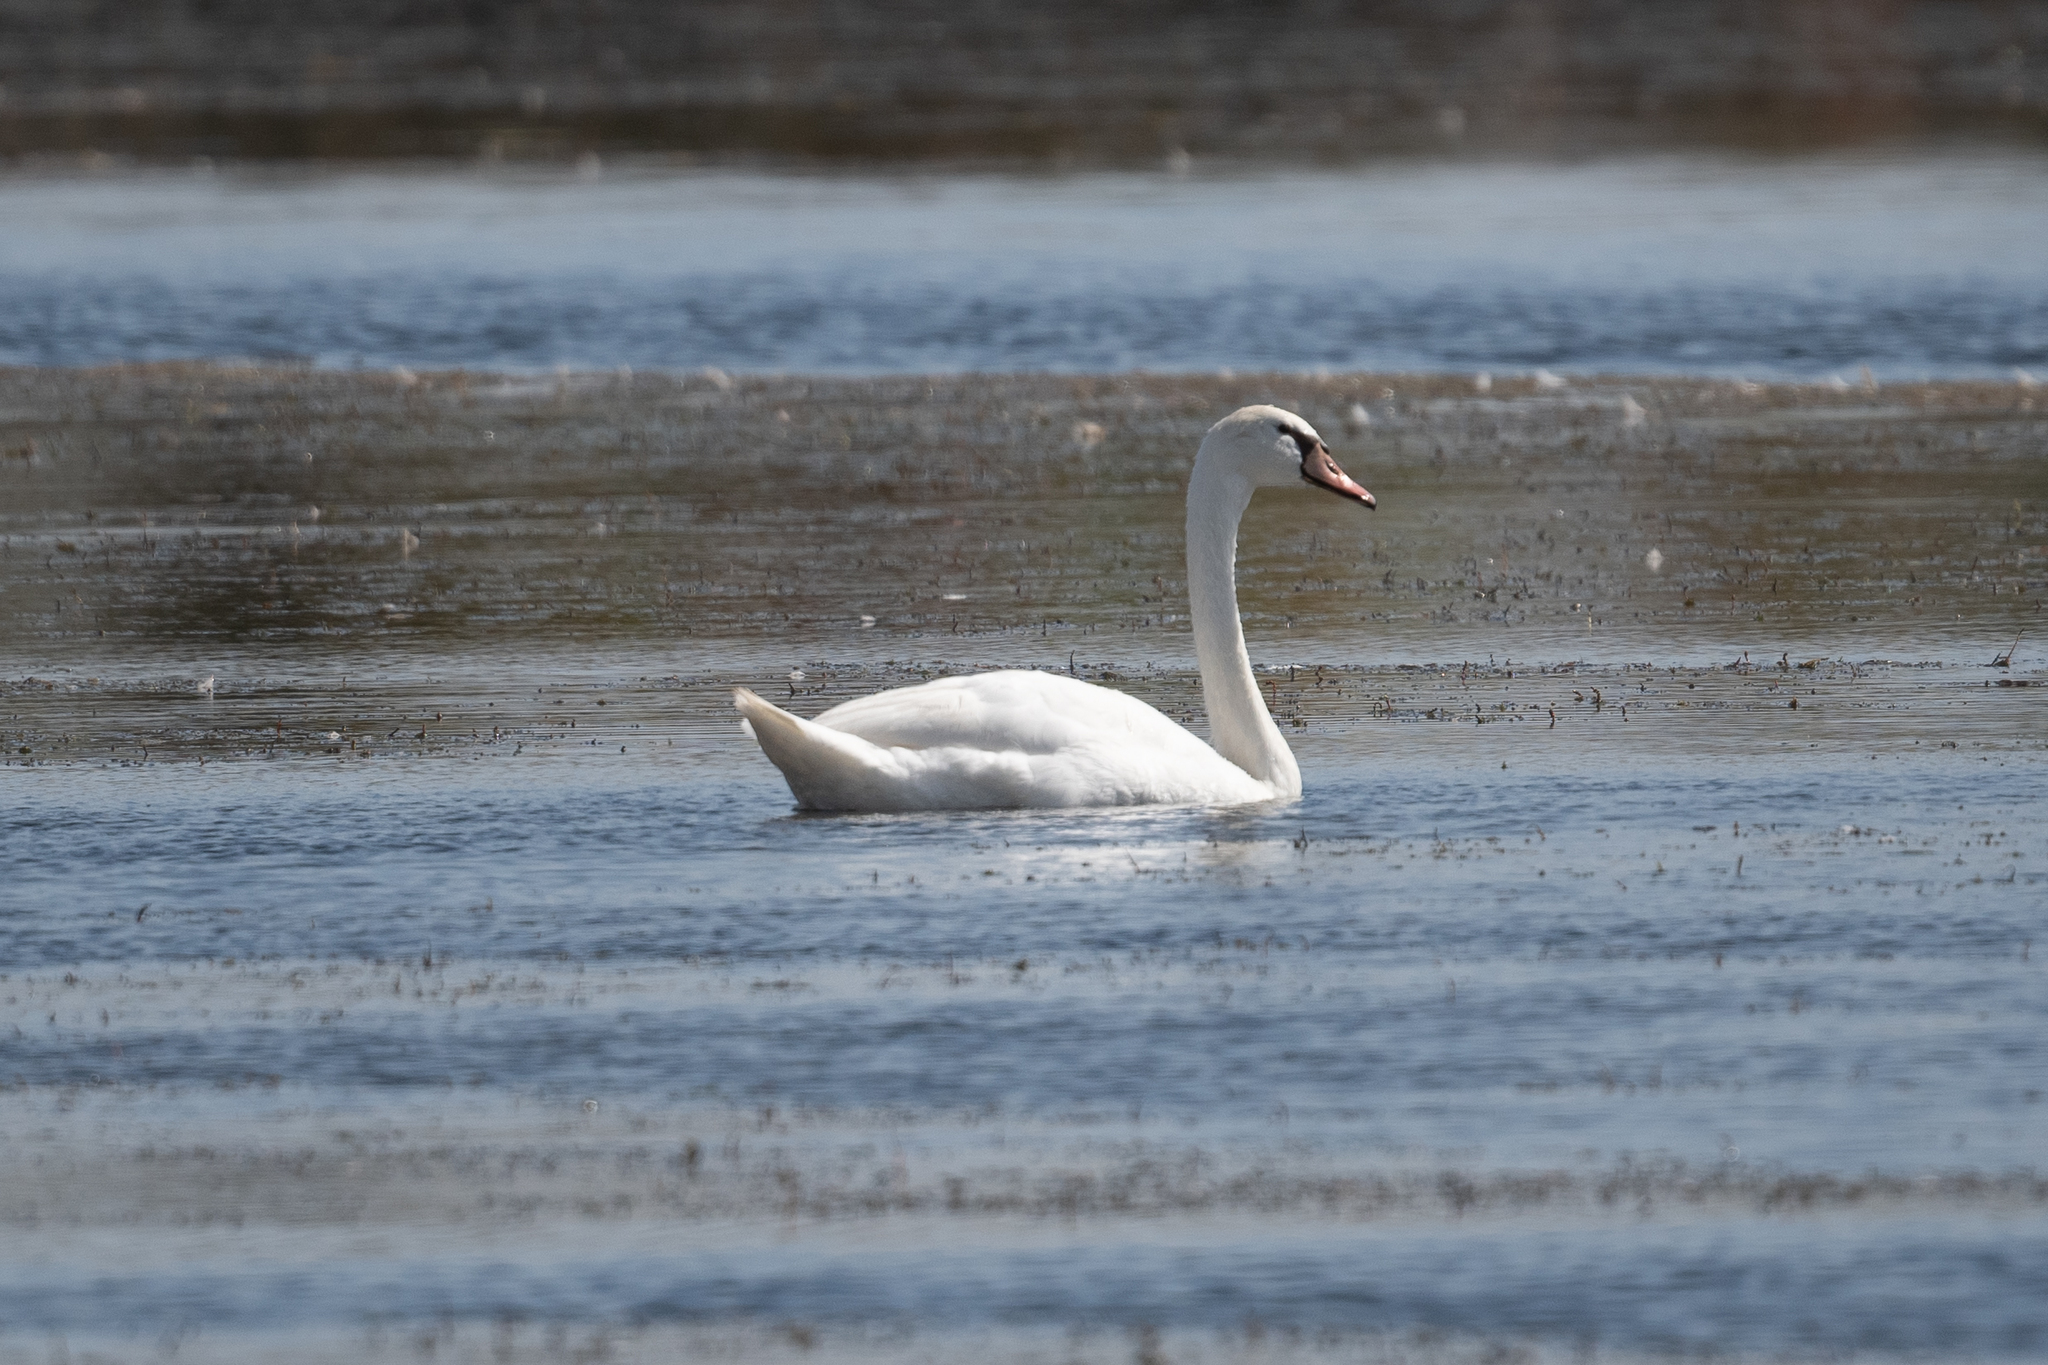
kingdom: Animalia
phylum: Chordata
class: Aves
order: Anseriformes
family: Anatidae
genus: Cygnus
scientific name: Cygnus olor
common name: Mute swan
